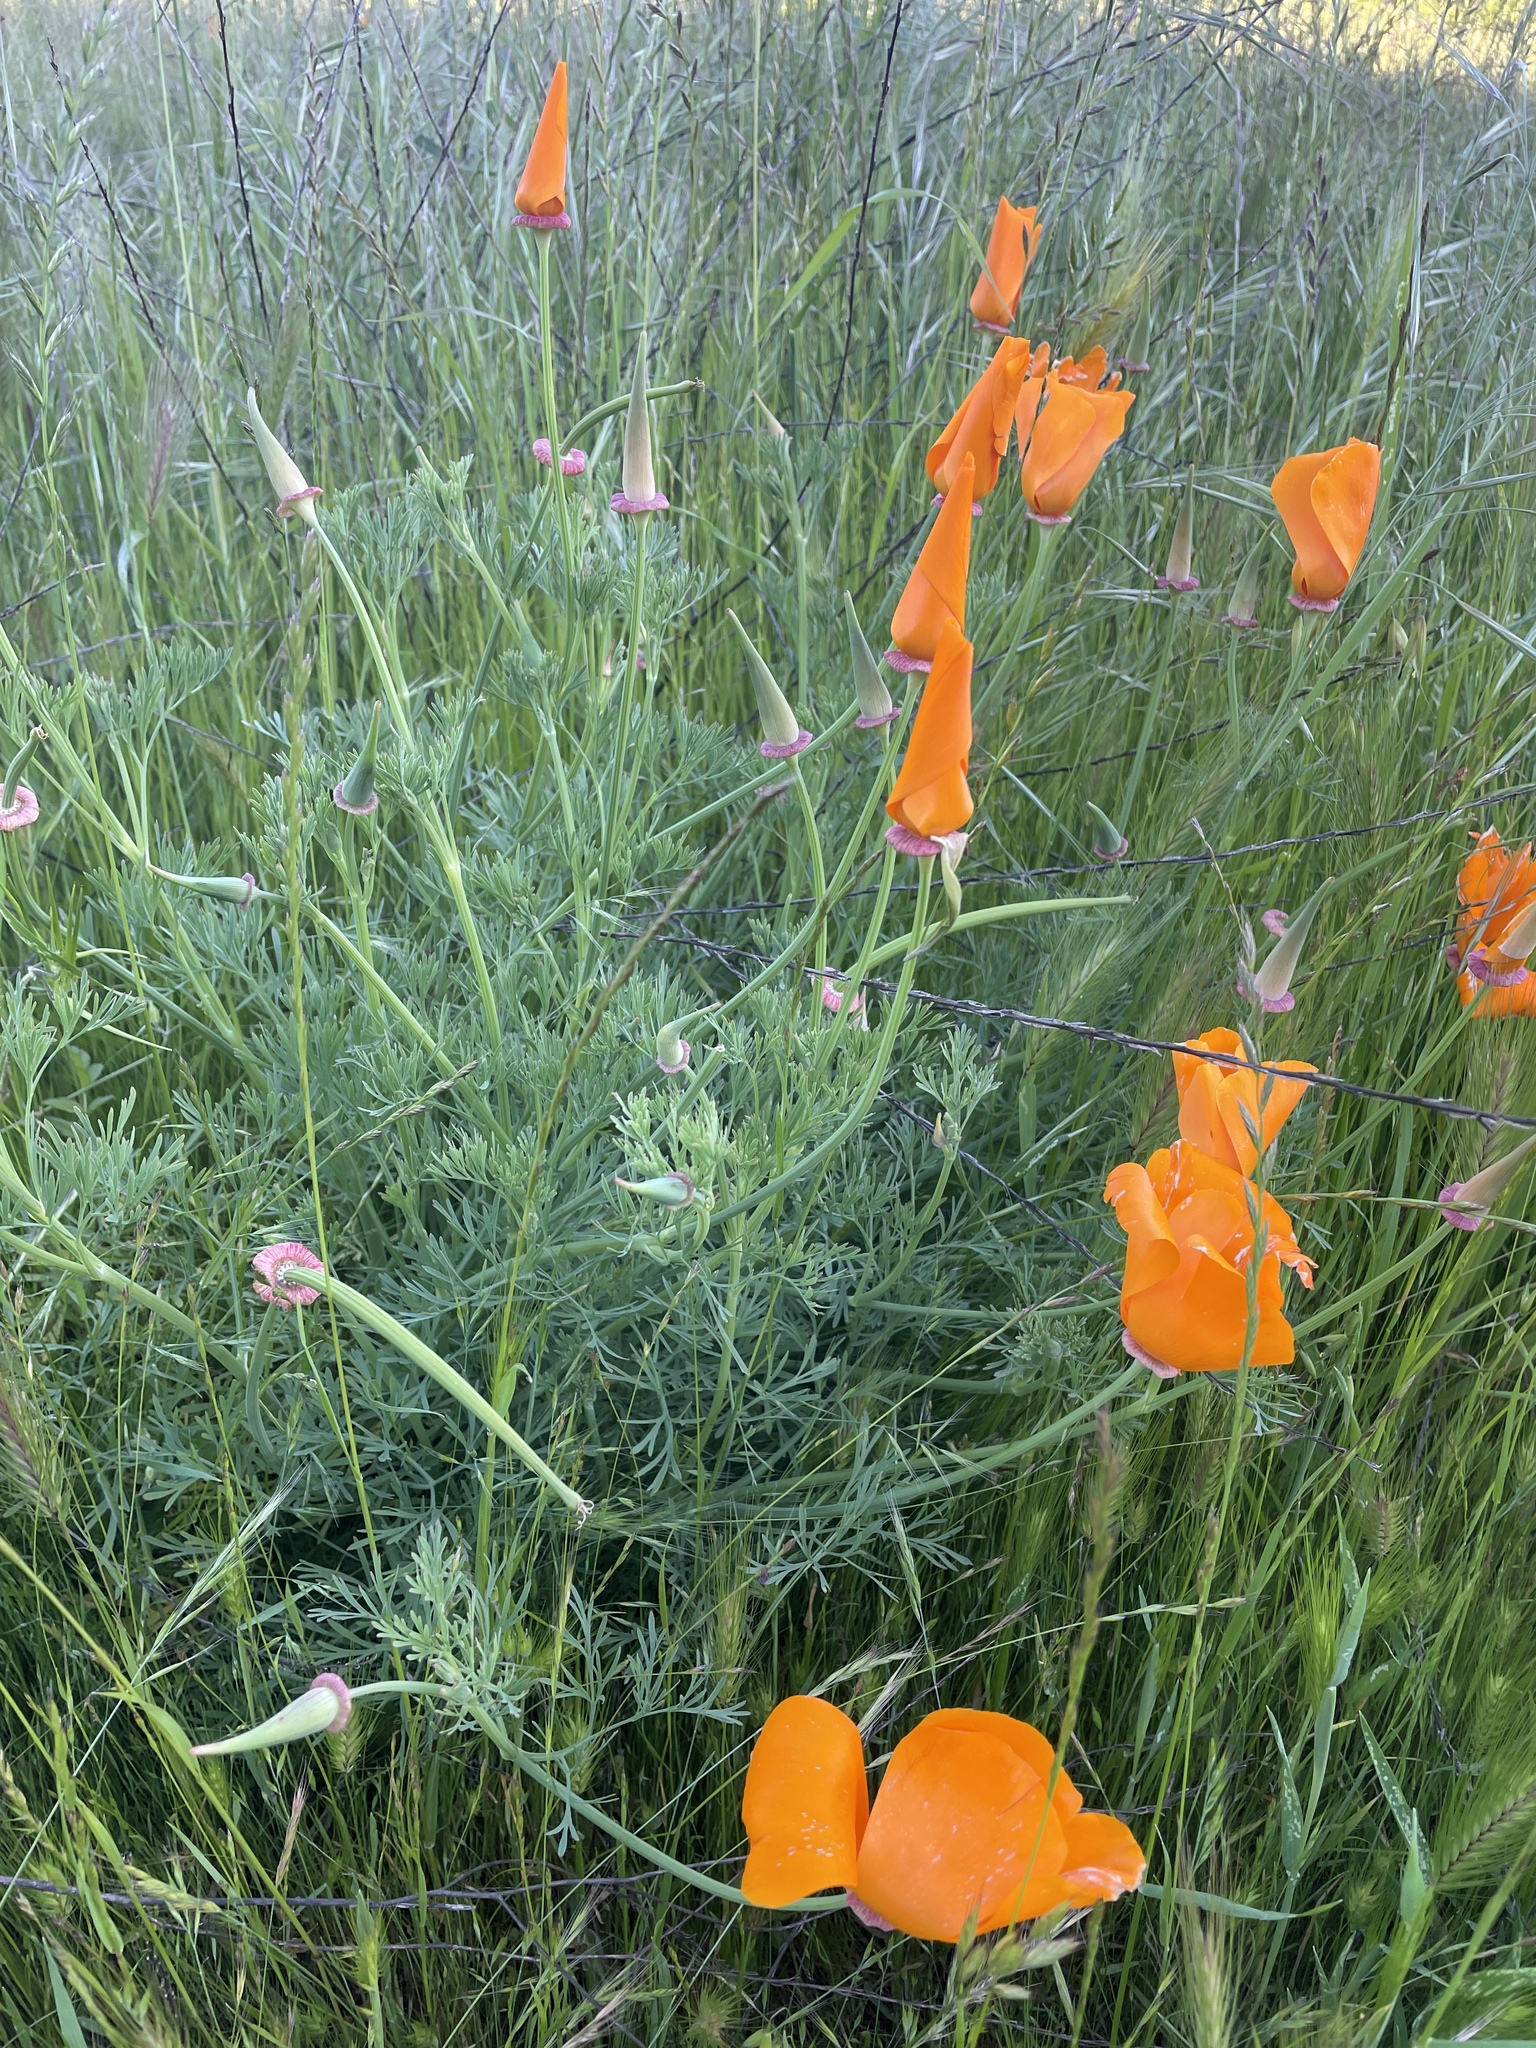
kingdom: Plantae
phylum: Tracheophyta
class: Magnoliopsida
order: Ranunculales
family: Papaveraceae
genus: Eschscholzia
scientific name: Eschscholzia californica
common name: California poppy
